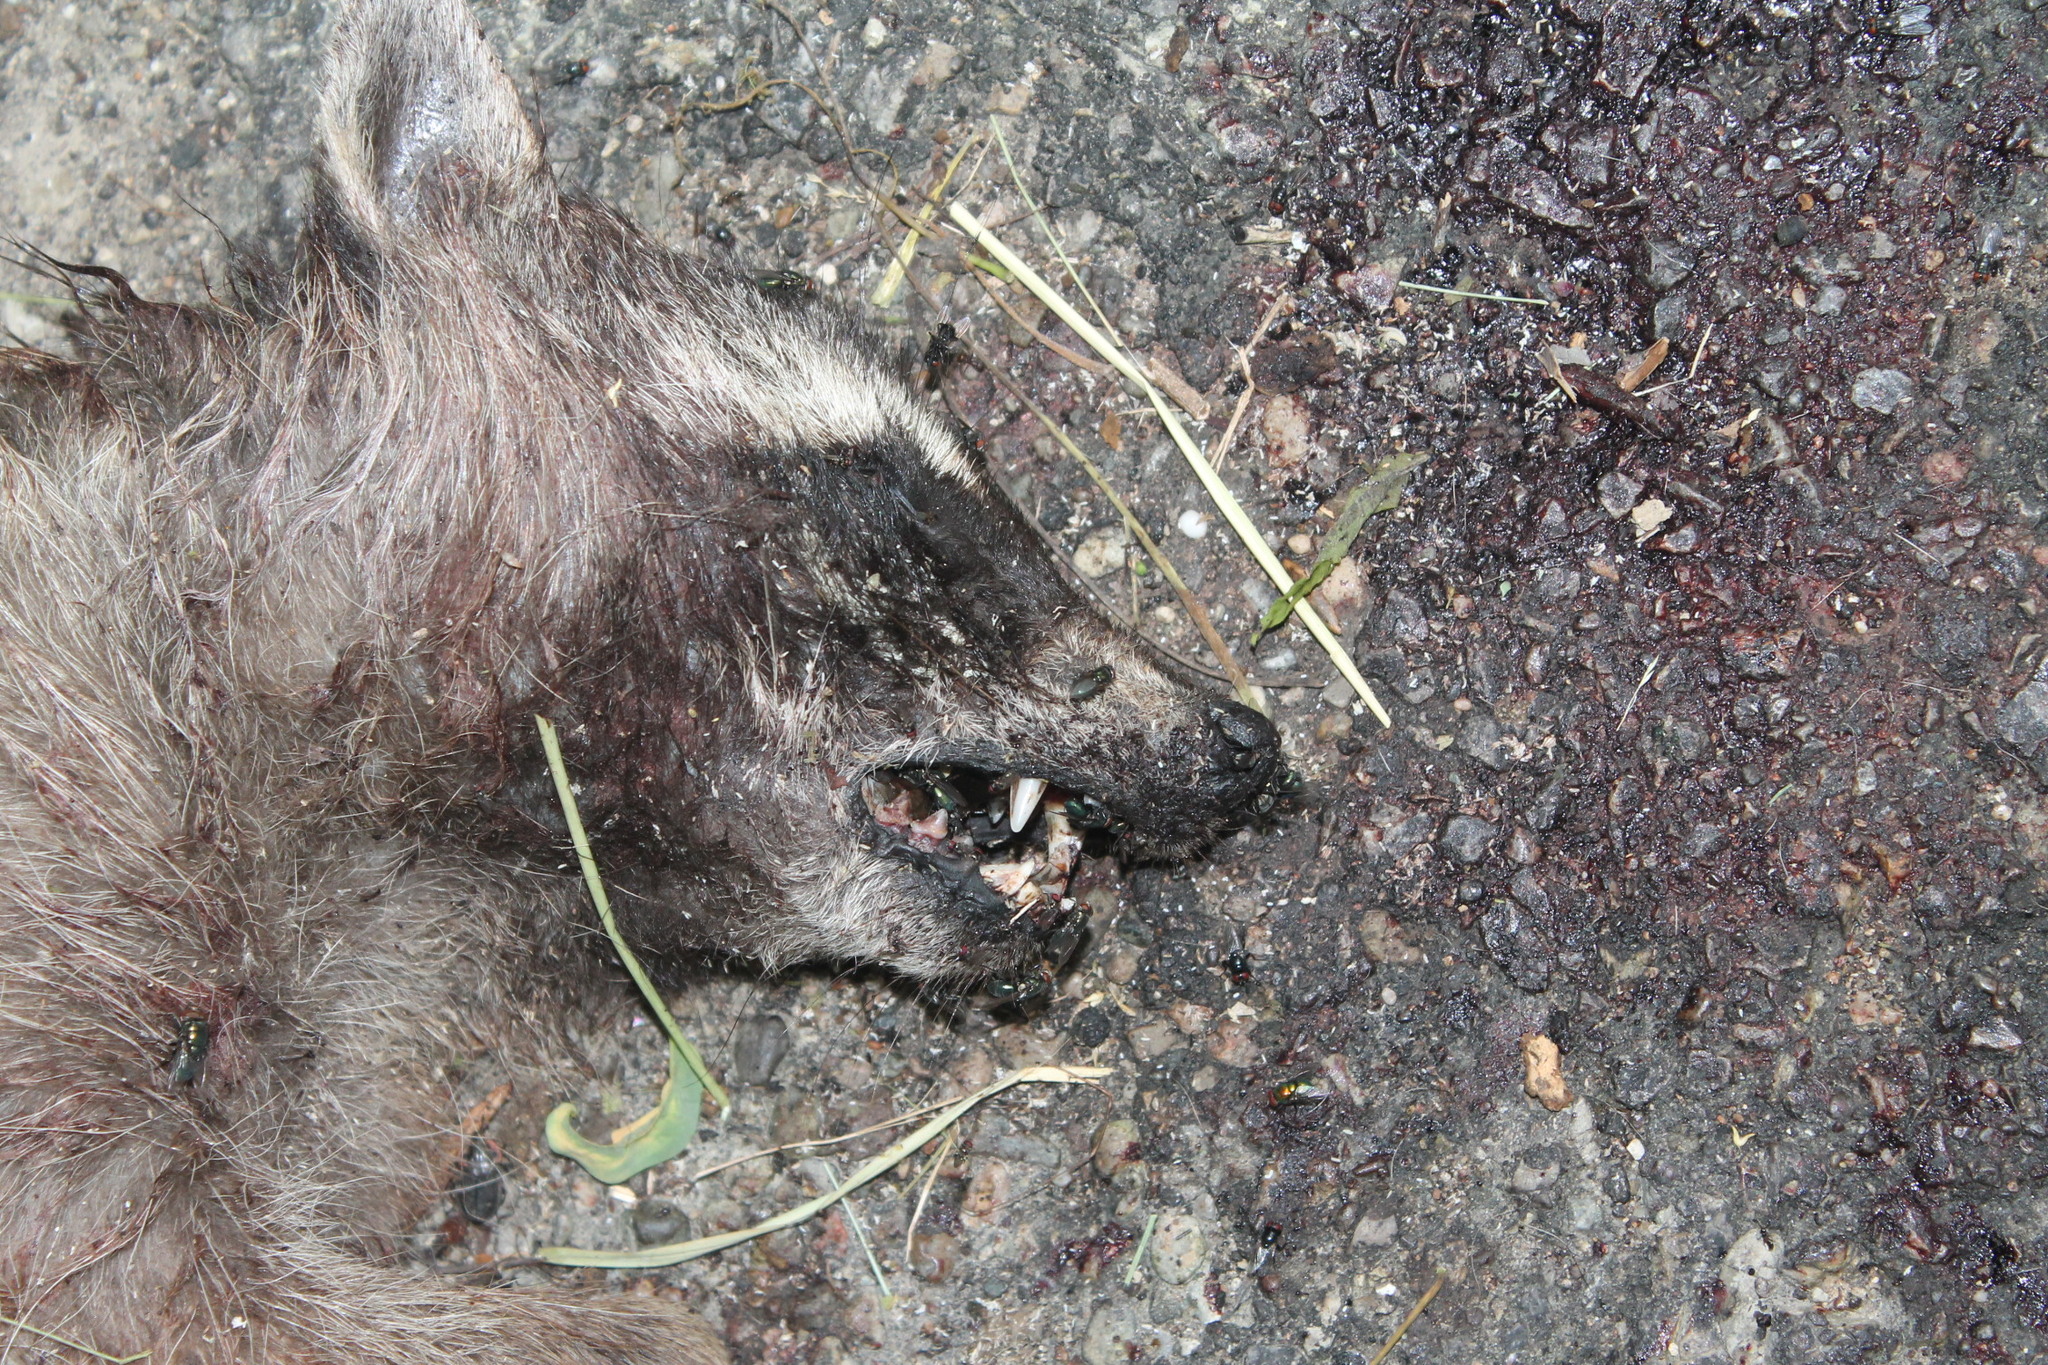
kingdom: Animalia
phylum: Chordata
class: Mammalia
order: Carnivora
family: Procyonidae
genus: Procyon
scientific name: Procyon lotor
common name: Raccoon
